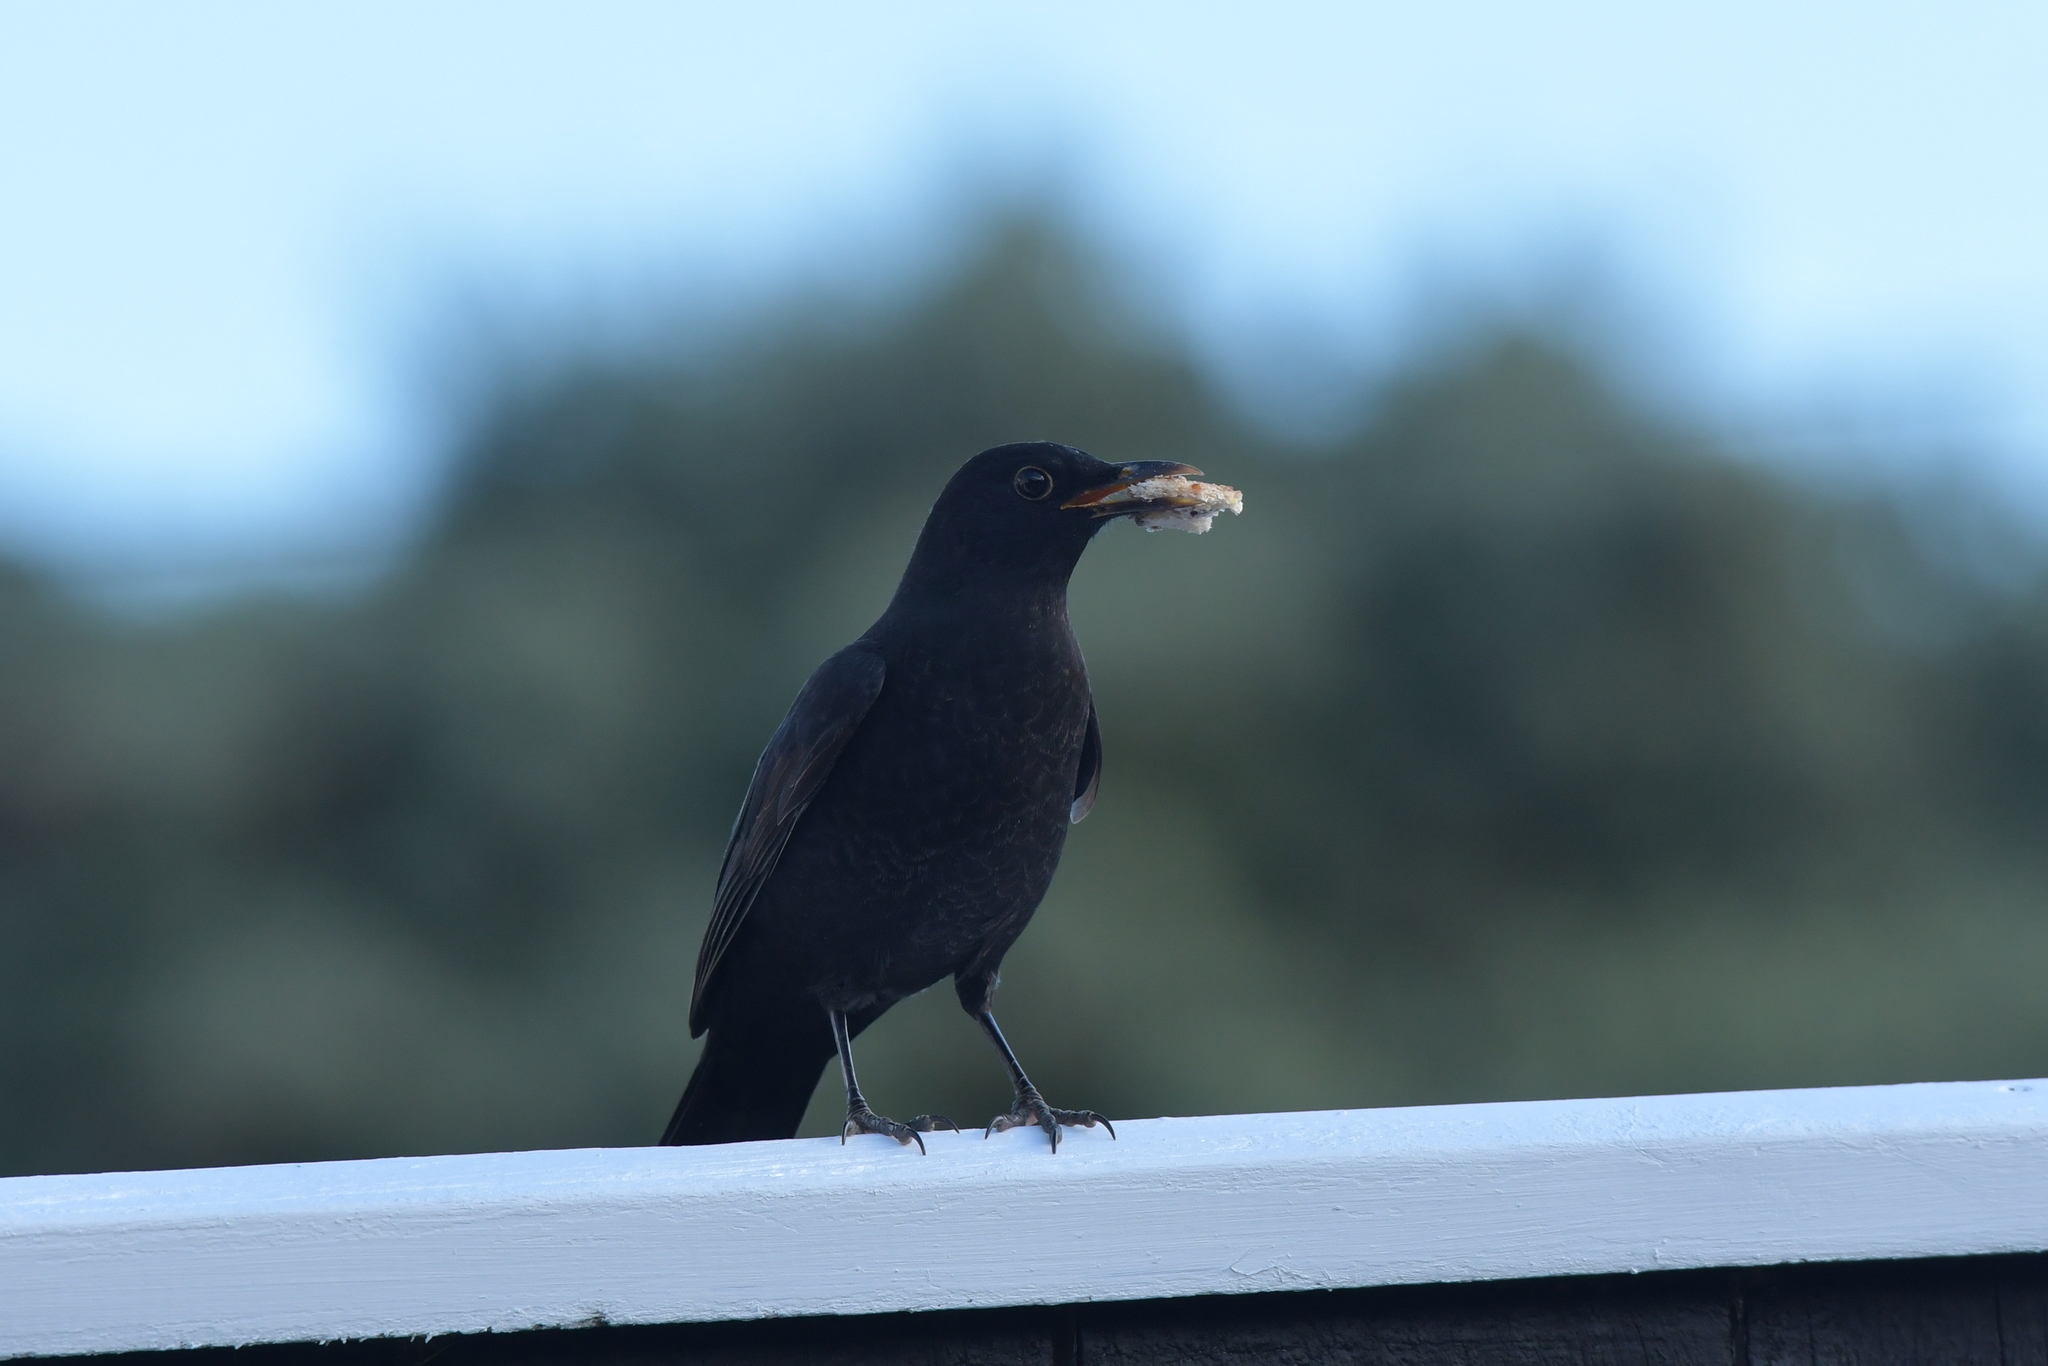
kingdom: Animalia
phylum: Chordata
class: Aves
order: Passeriformes
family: Turdidae
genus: Turdus
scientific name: Turdus merula
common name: Common blackbird
